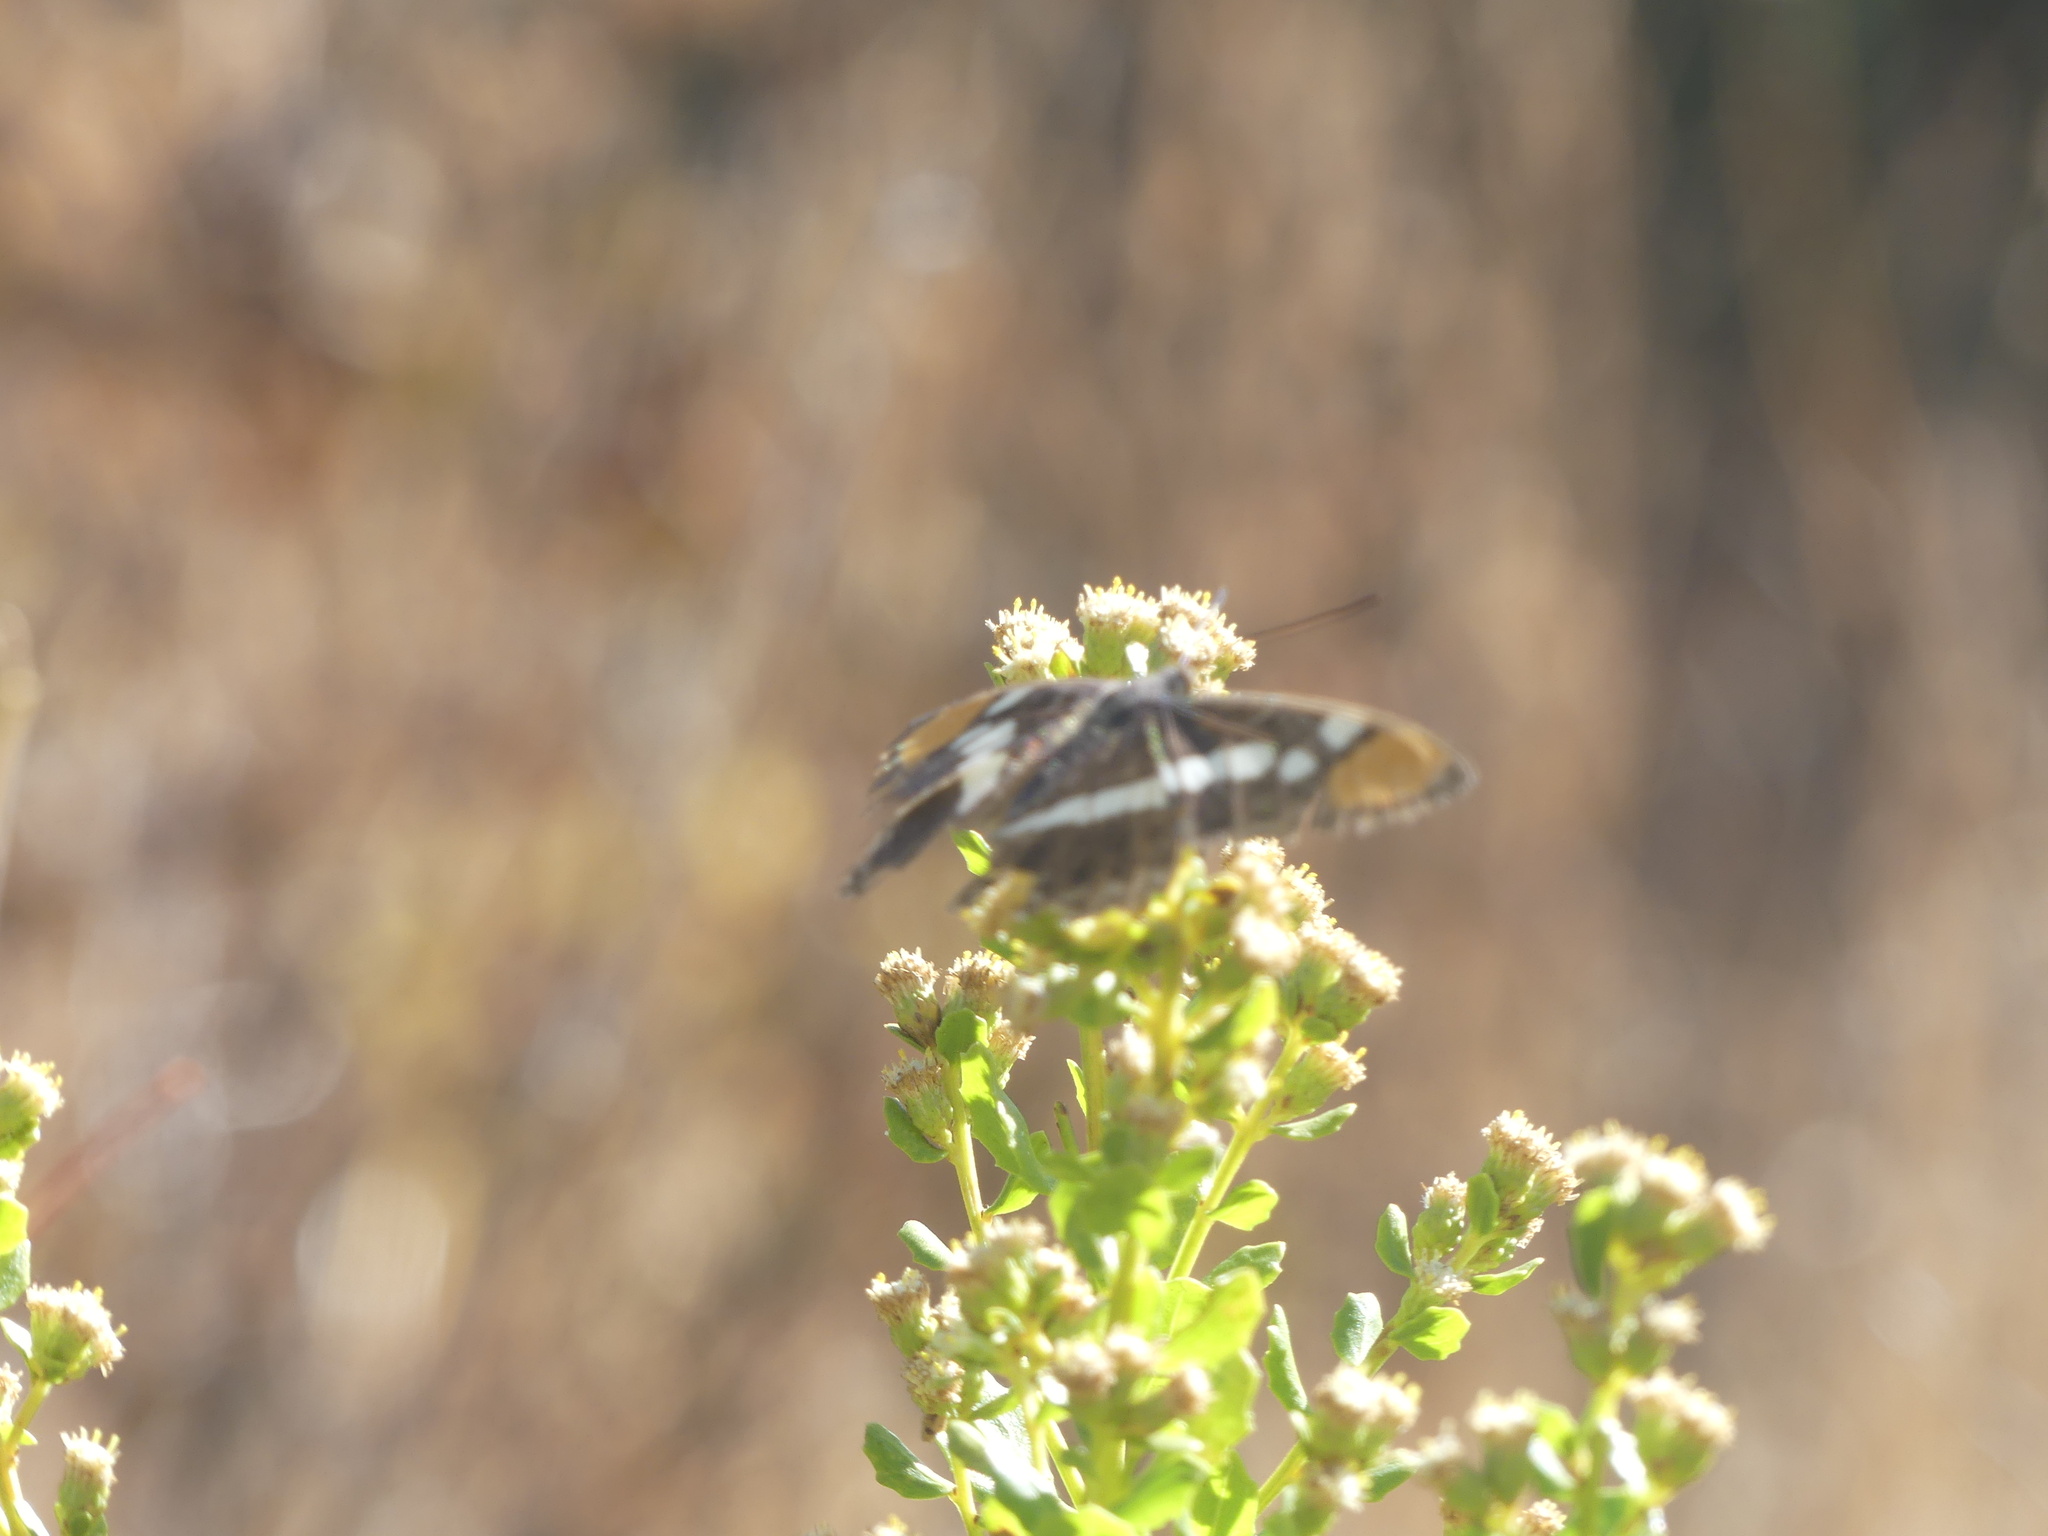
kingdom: Animalia
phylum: Arthropoda
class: Insecta
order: Lepidoptera
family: Nymphalidae
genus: Limenitis
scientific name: Limenitis bredowii
